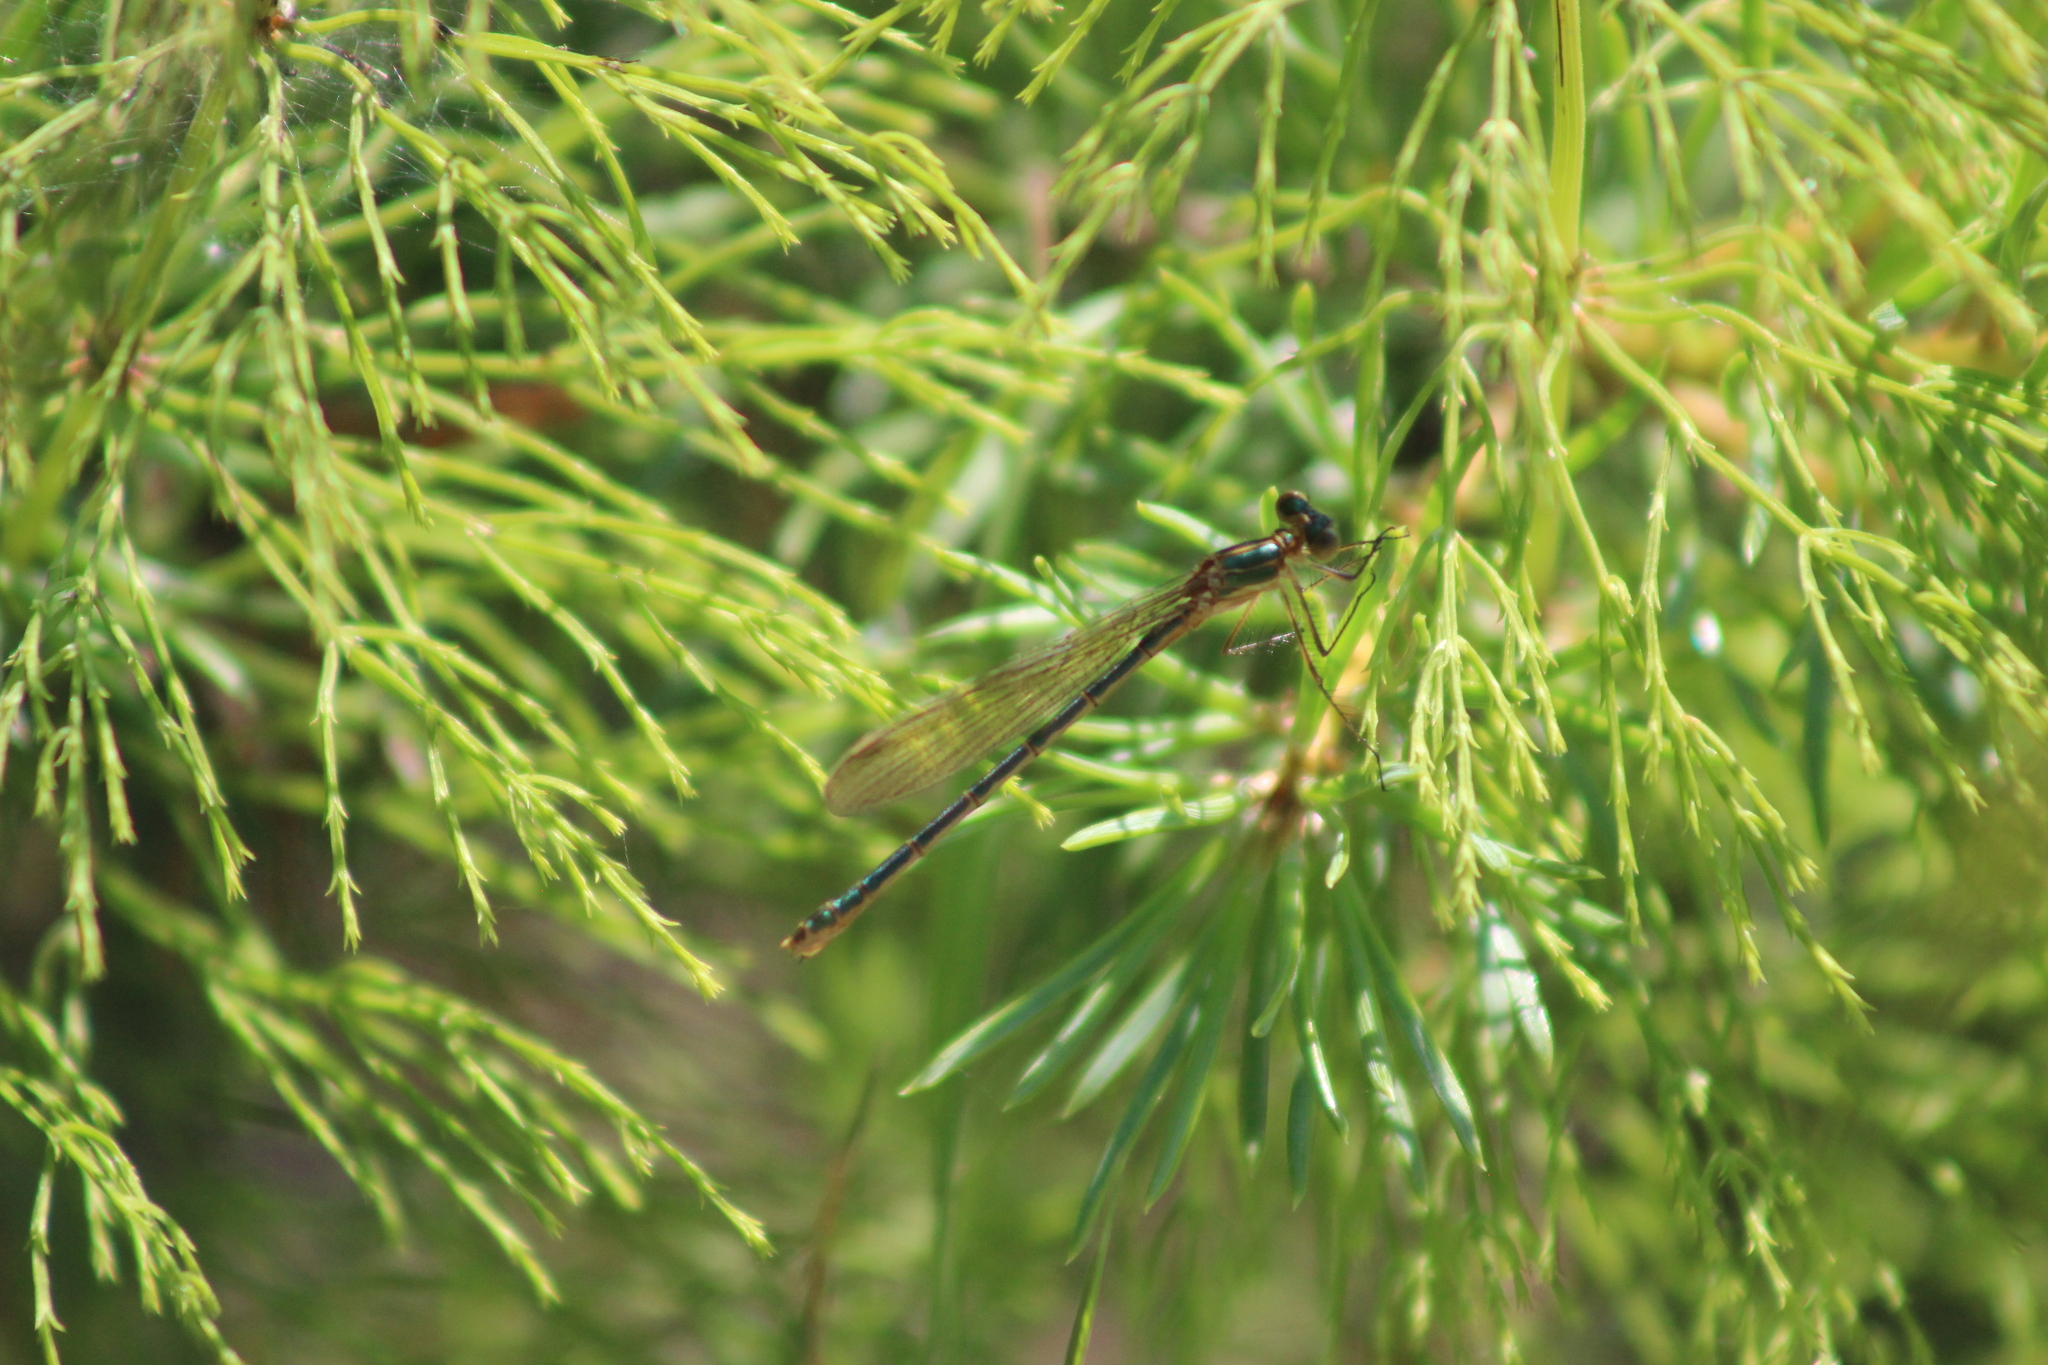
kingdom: Animalia
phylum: Arthropoda
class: Insecta
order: Odonata
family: Lestidae
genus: Lestes
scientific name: Lestes sponsa
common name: Common spreadwing
